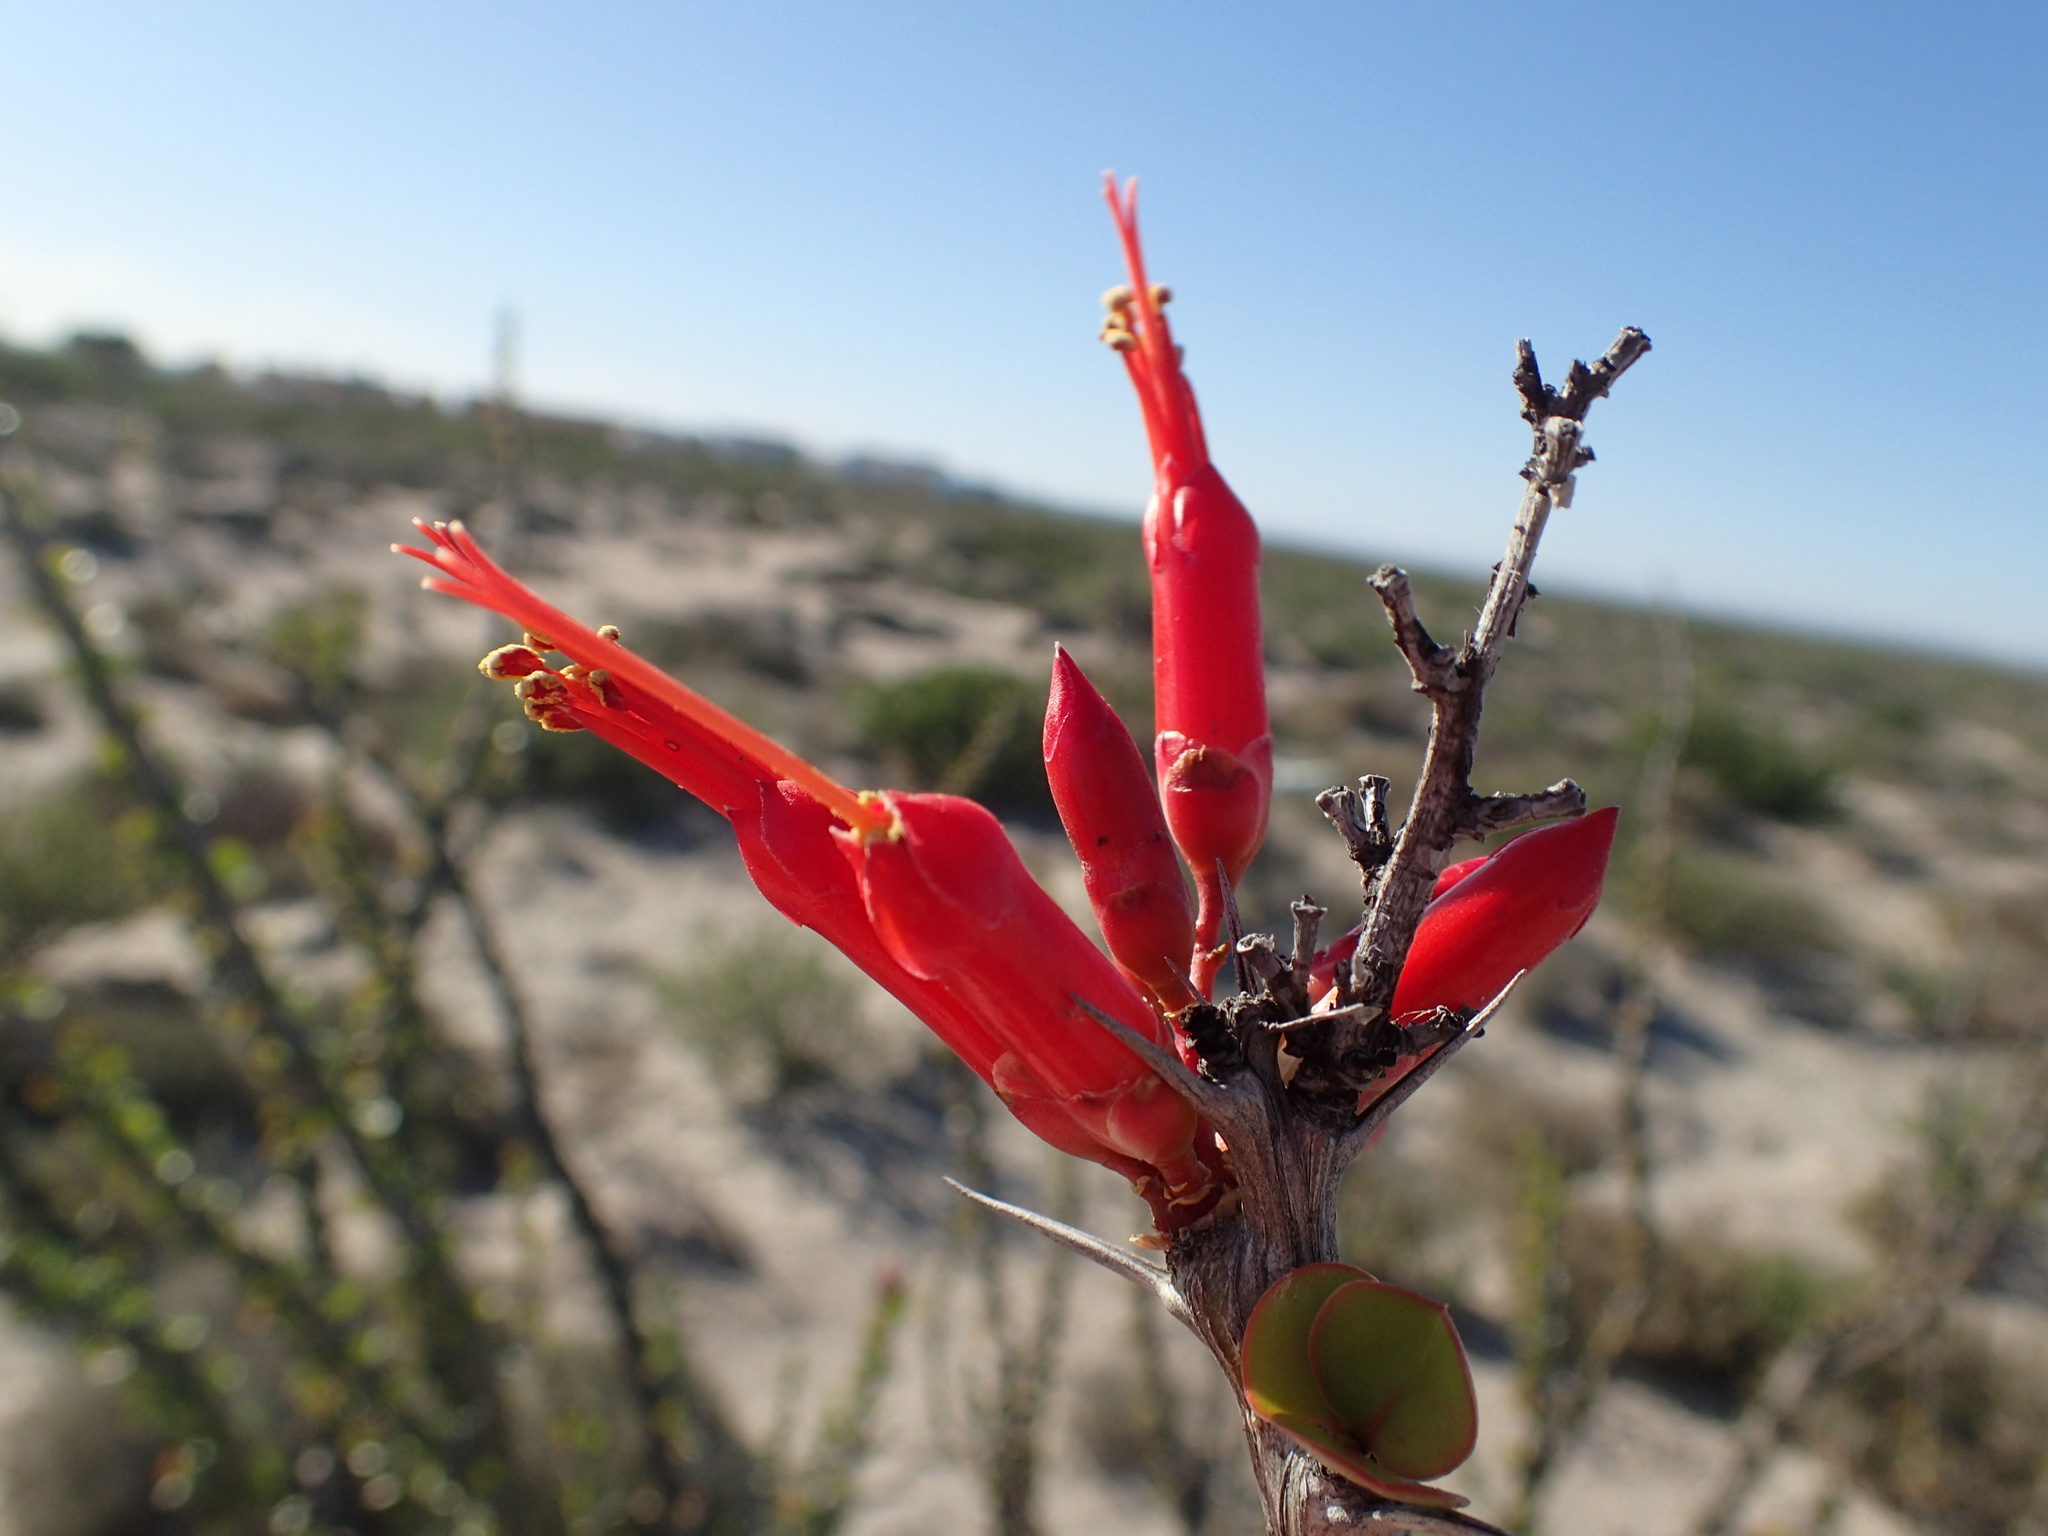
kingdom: Plantae
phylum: Tracheophyta
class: Magnoliopsida
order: Ericales
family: Fouquieriaceae
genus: Fouquieria
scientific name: Fouquieria diguetii
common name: Adam's tree
